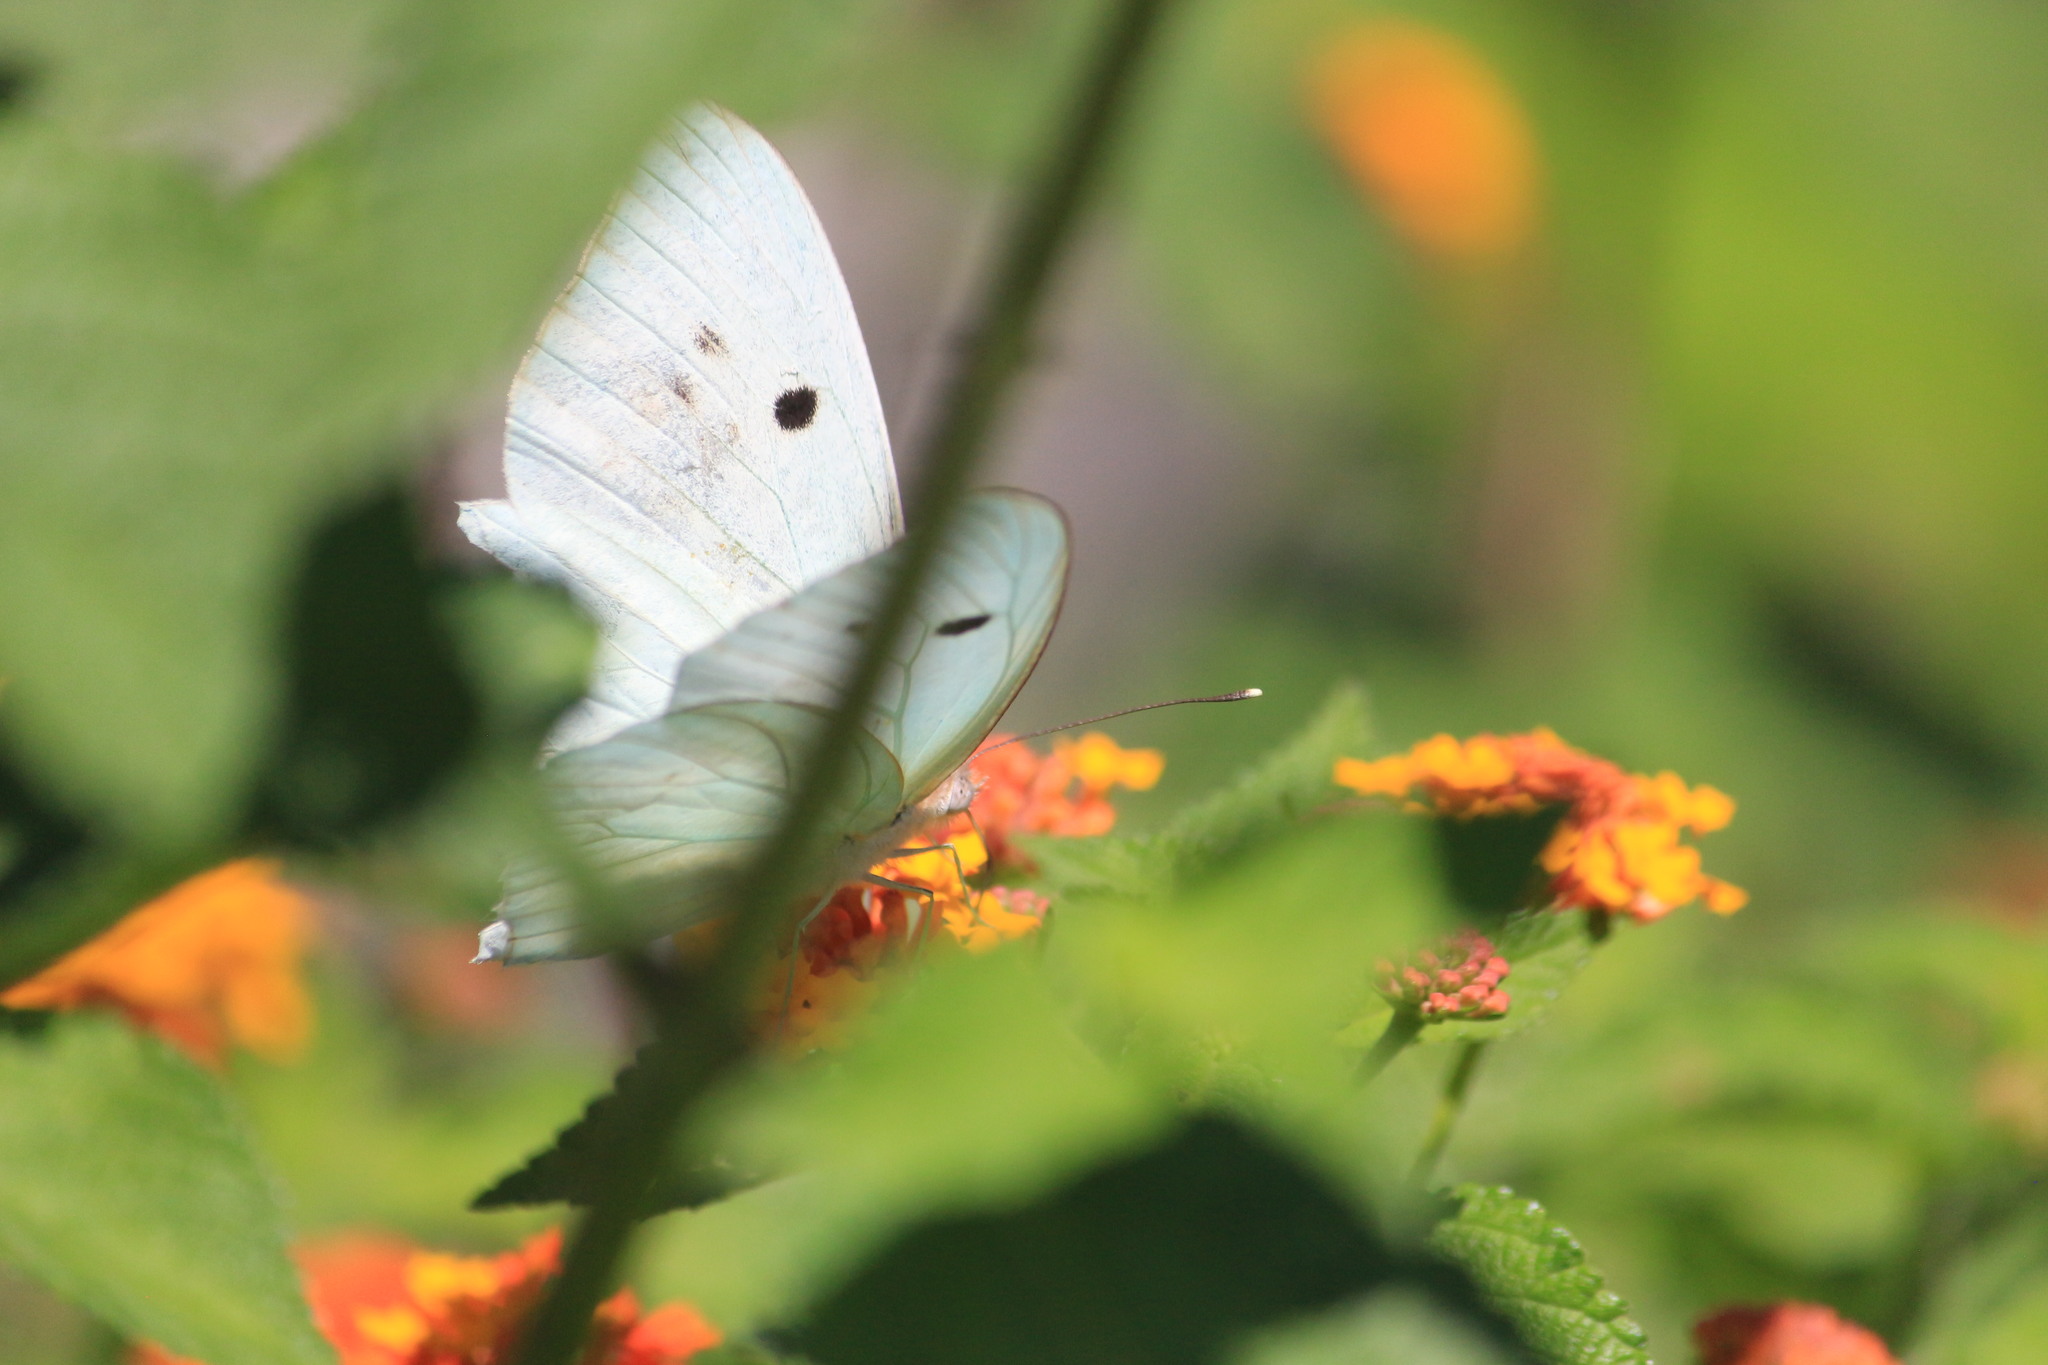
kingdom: Animalia
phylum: Arthropoda
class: Insecta
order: Lepidoptera
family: Pieridae
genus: Ganyra
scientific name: Ganyra josephina
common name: Giant white
